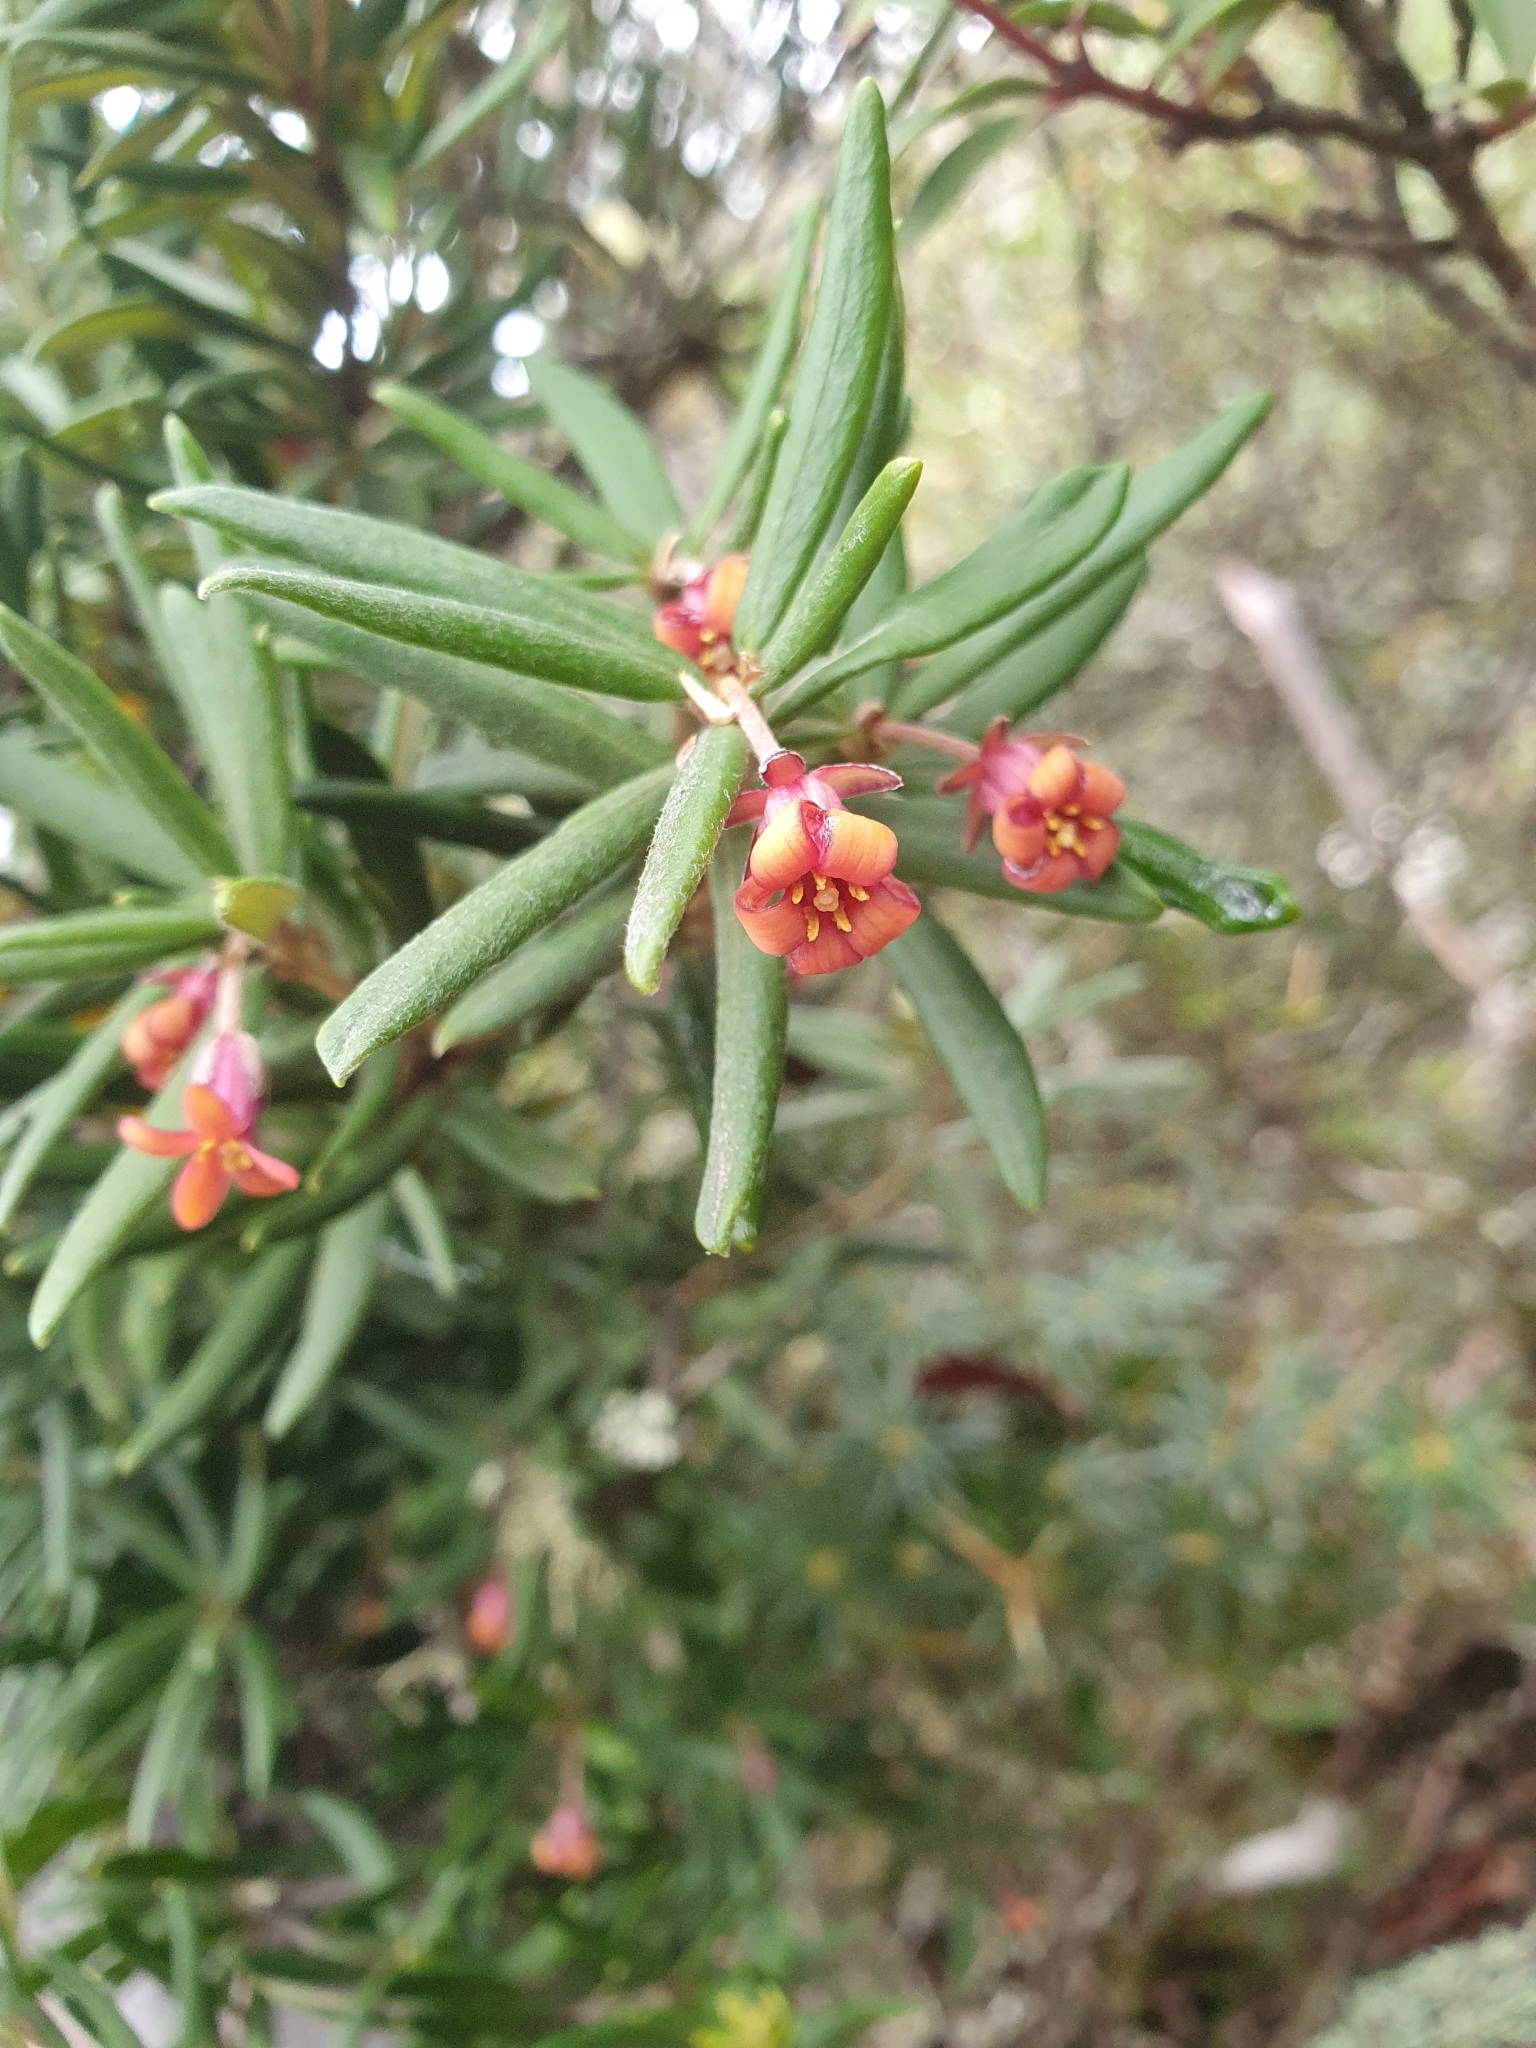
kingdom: Plantae
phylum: Tracheophyta
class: Magnoliopsida
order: Apiales
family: Pittosporaceae
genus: Pittosporum
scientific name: Pittosporum bicolor
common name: Tallowwood
